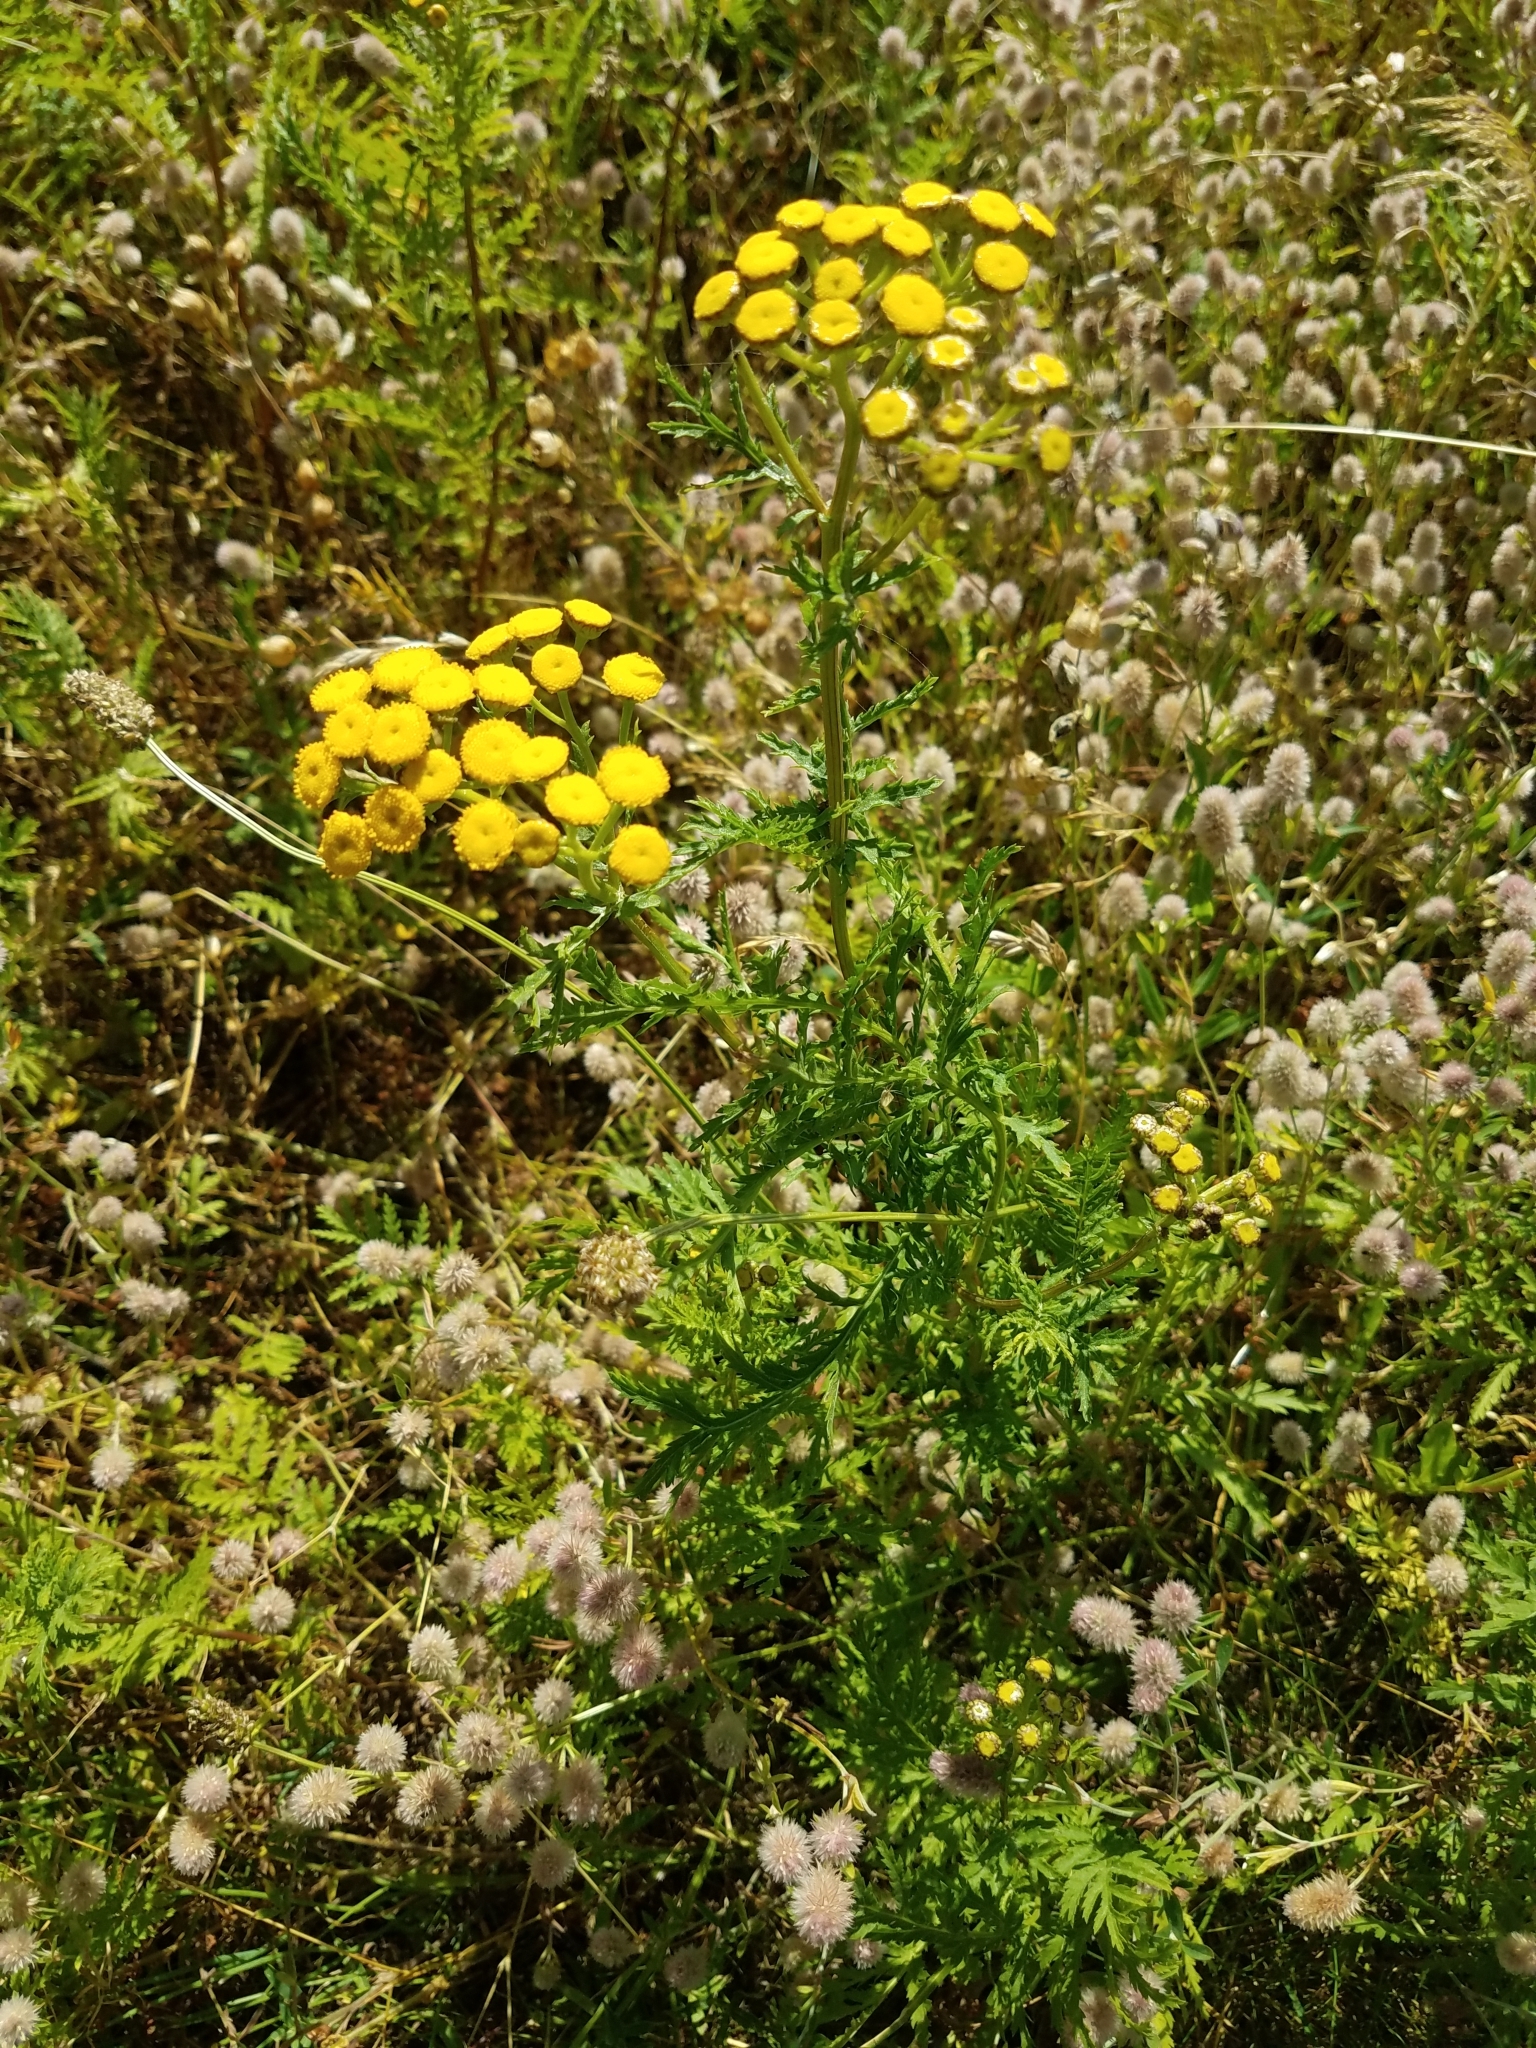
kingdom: Plantae
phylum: Tracheophyta
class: Magnoliopsida
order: Asterales
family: Asteraceae
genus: Tanacetum
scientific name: Tanacetum vulgare
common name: Common tansy
